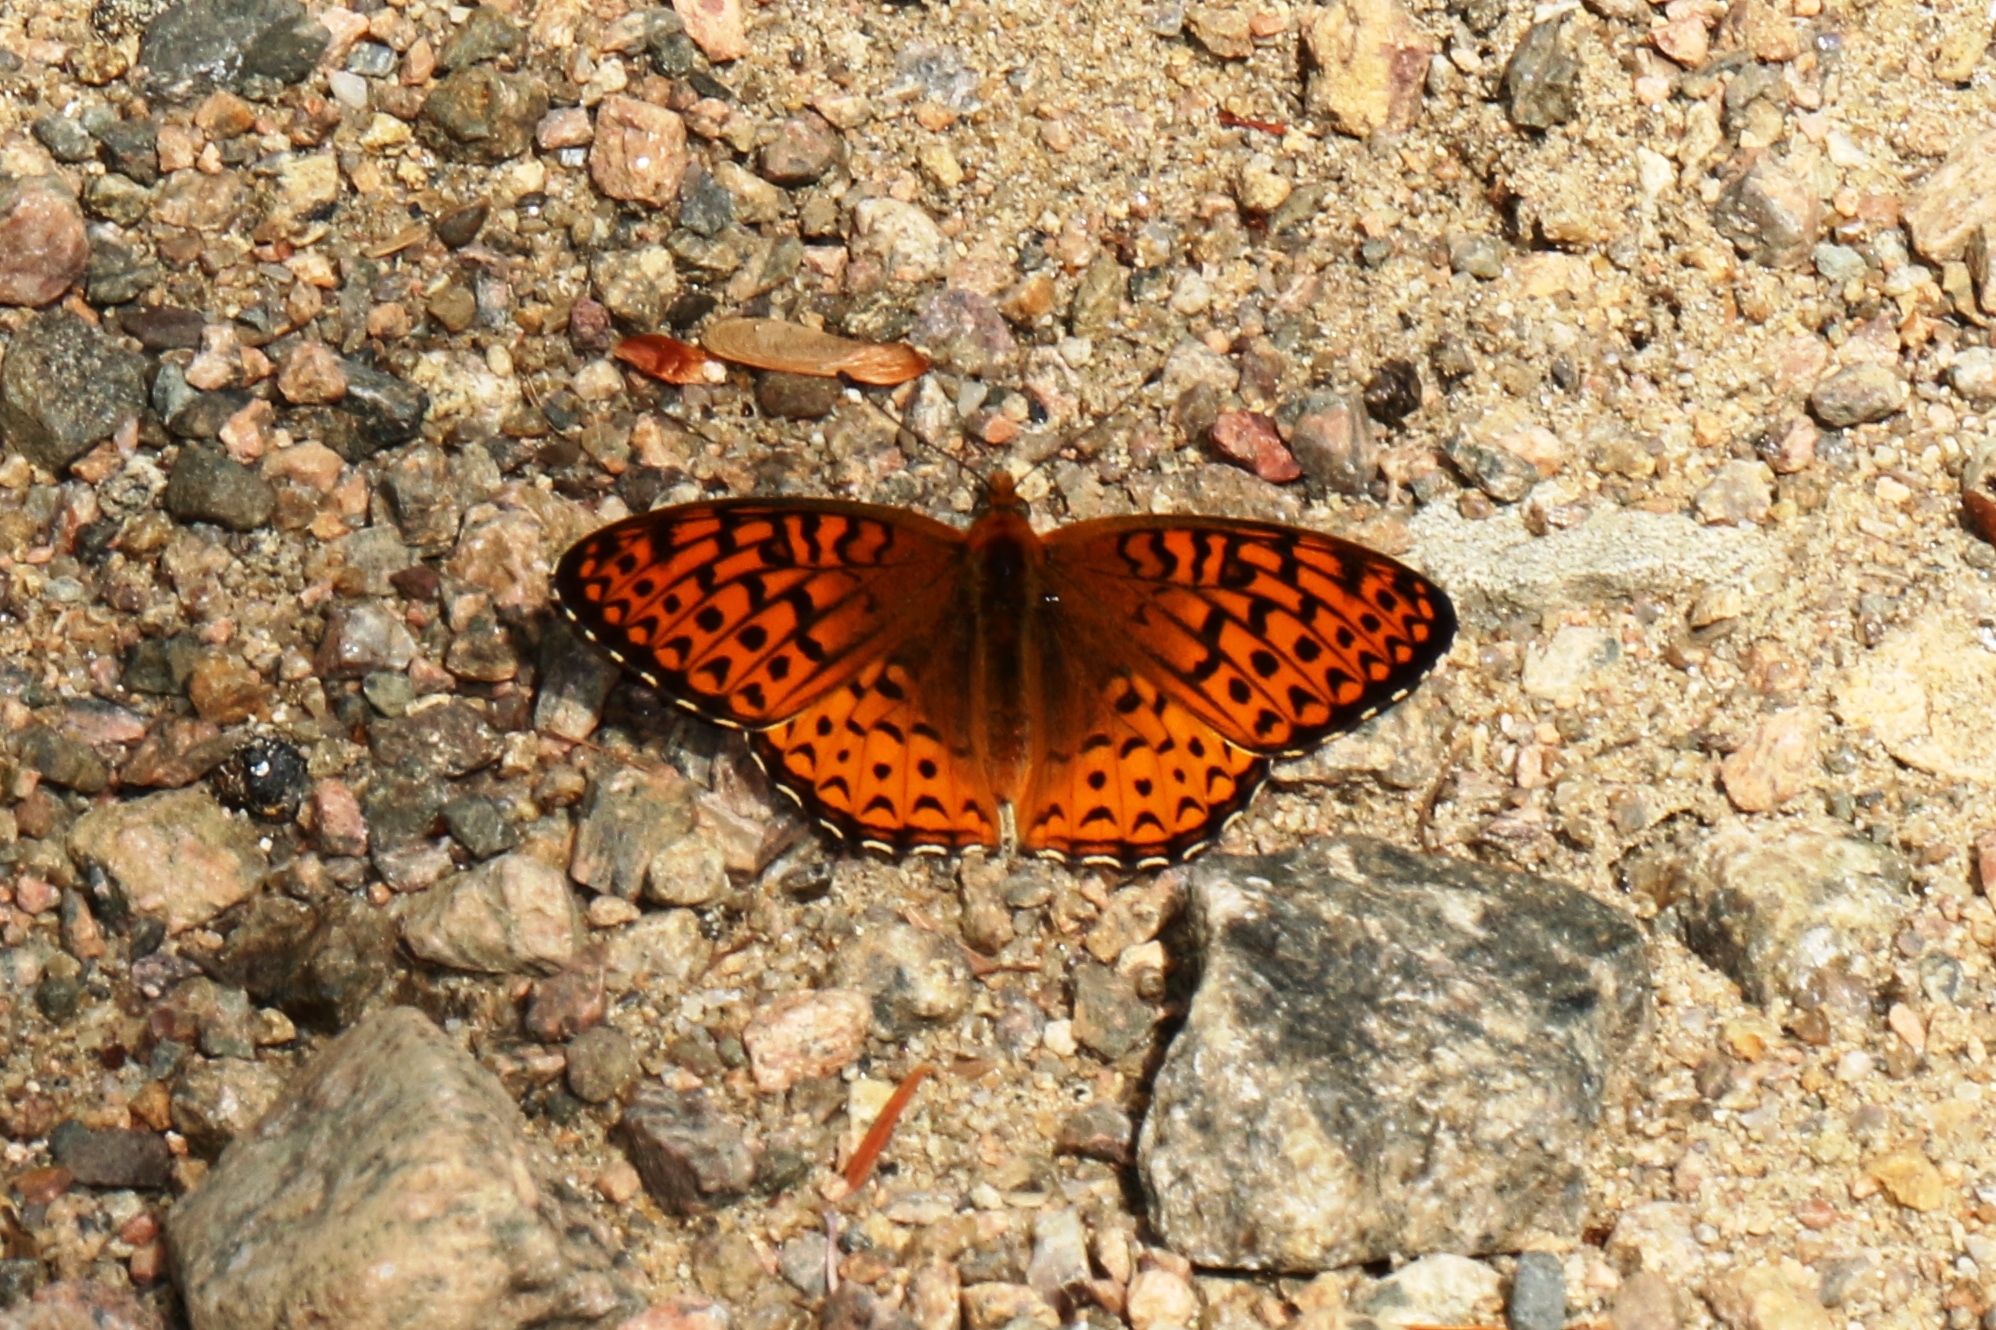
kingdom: Animalia
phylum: Arthropoda
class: Insecta
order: Lepidoptera
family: Nymphalidae
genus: Speyeria
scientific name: Speyeria atlantis
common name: Atlantis fritillary
